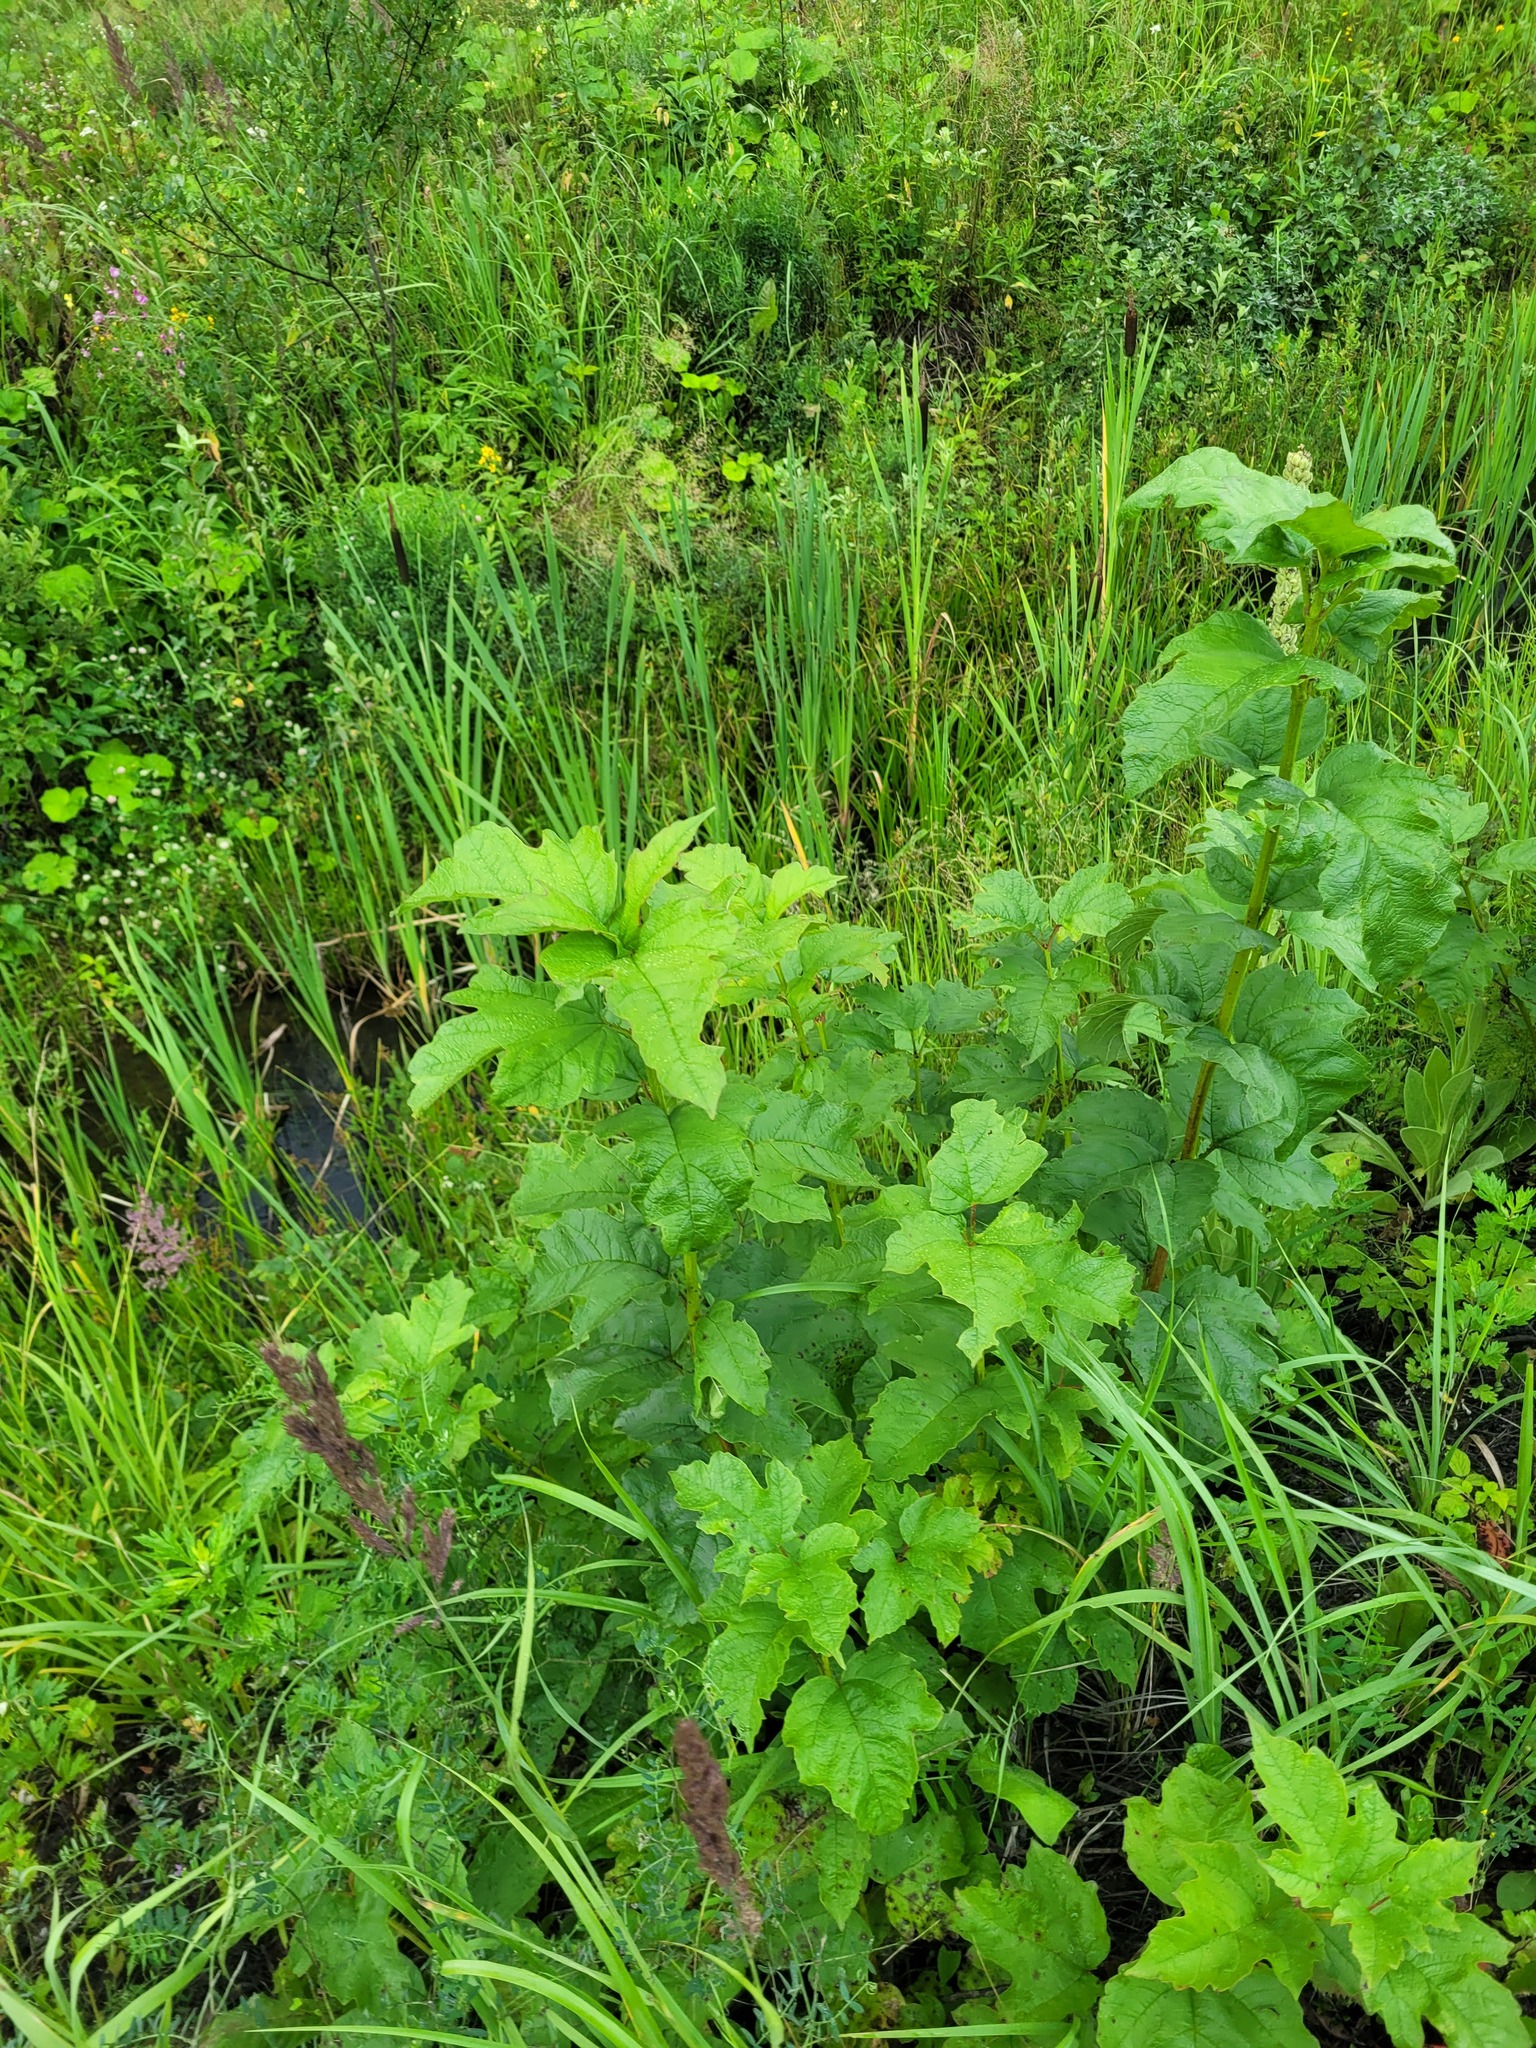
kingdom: Plantae
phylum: Tracheophyta
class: Magnoliopsida
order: Dipsacales
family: Viburnaceae
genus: Viburnum
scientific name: Viburnum opulus
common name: Guelder-rose
